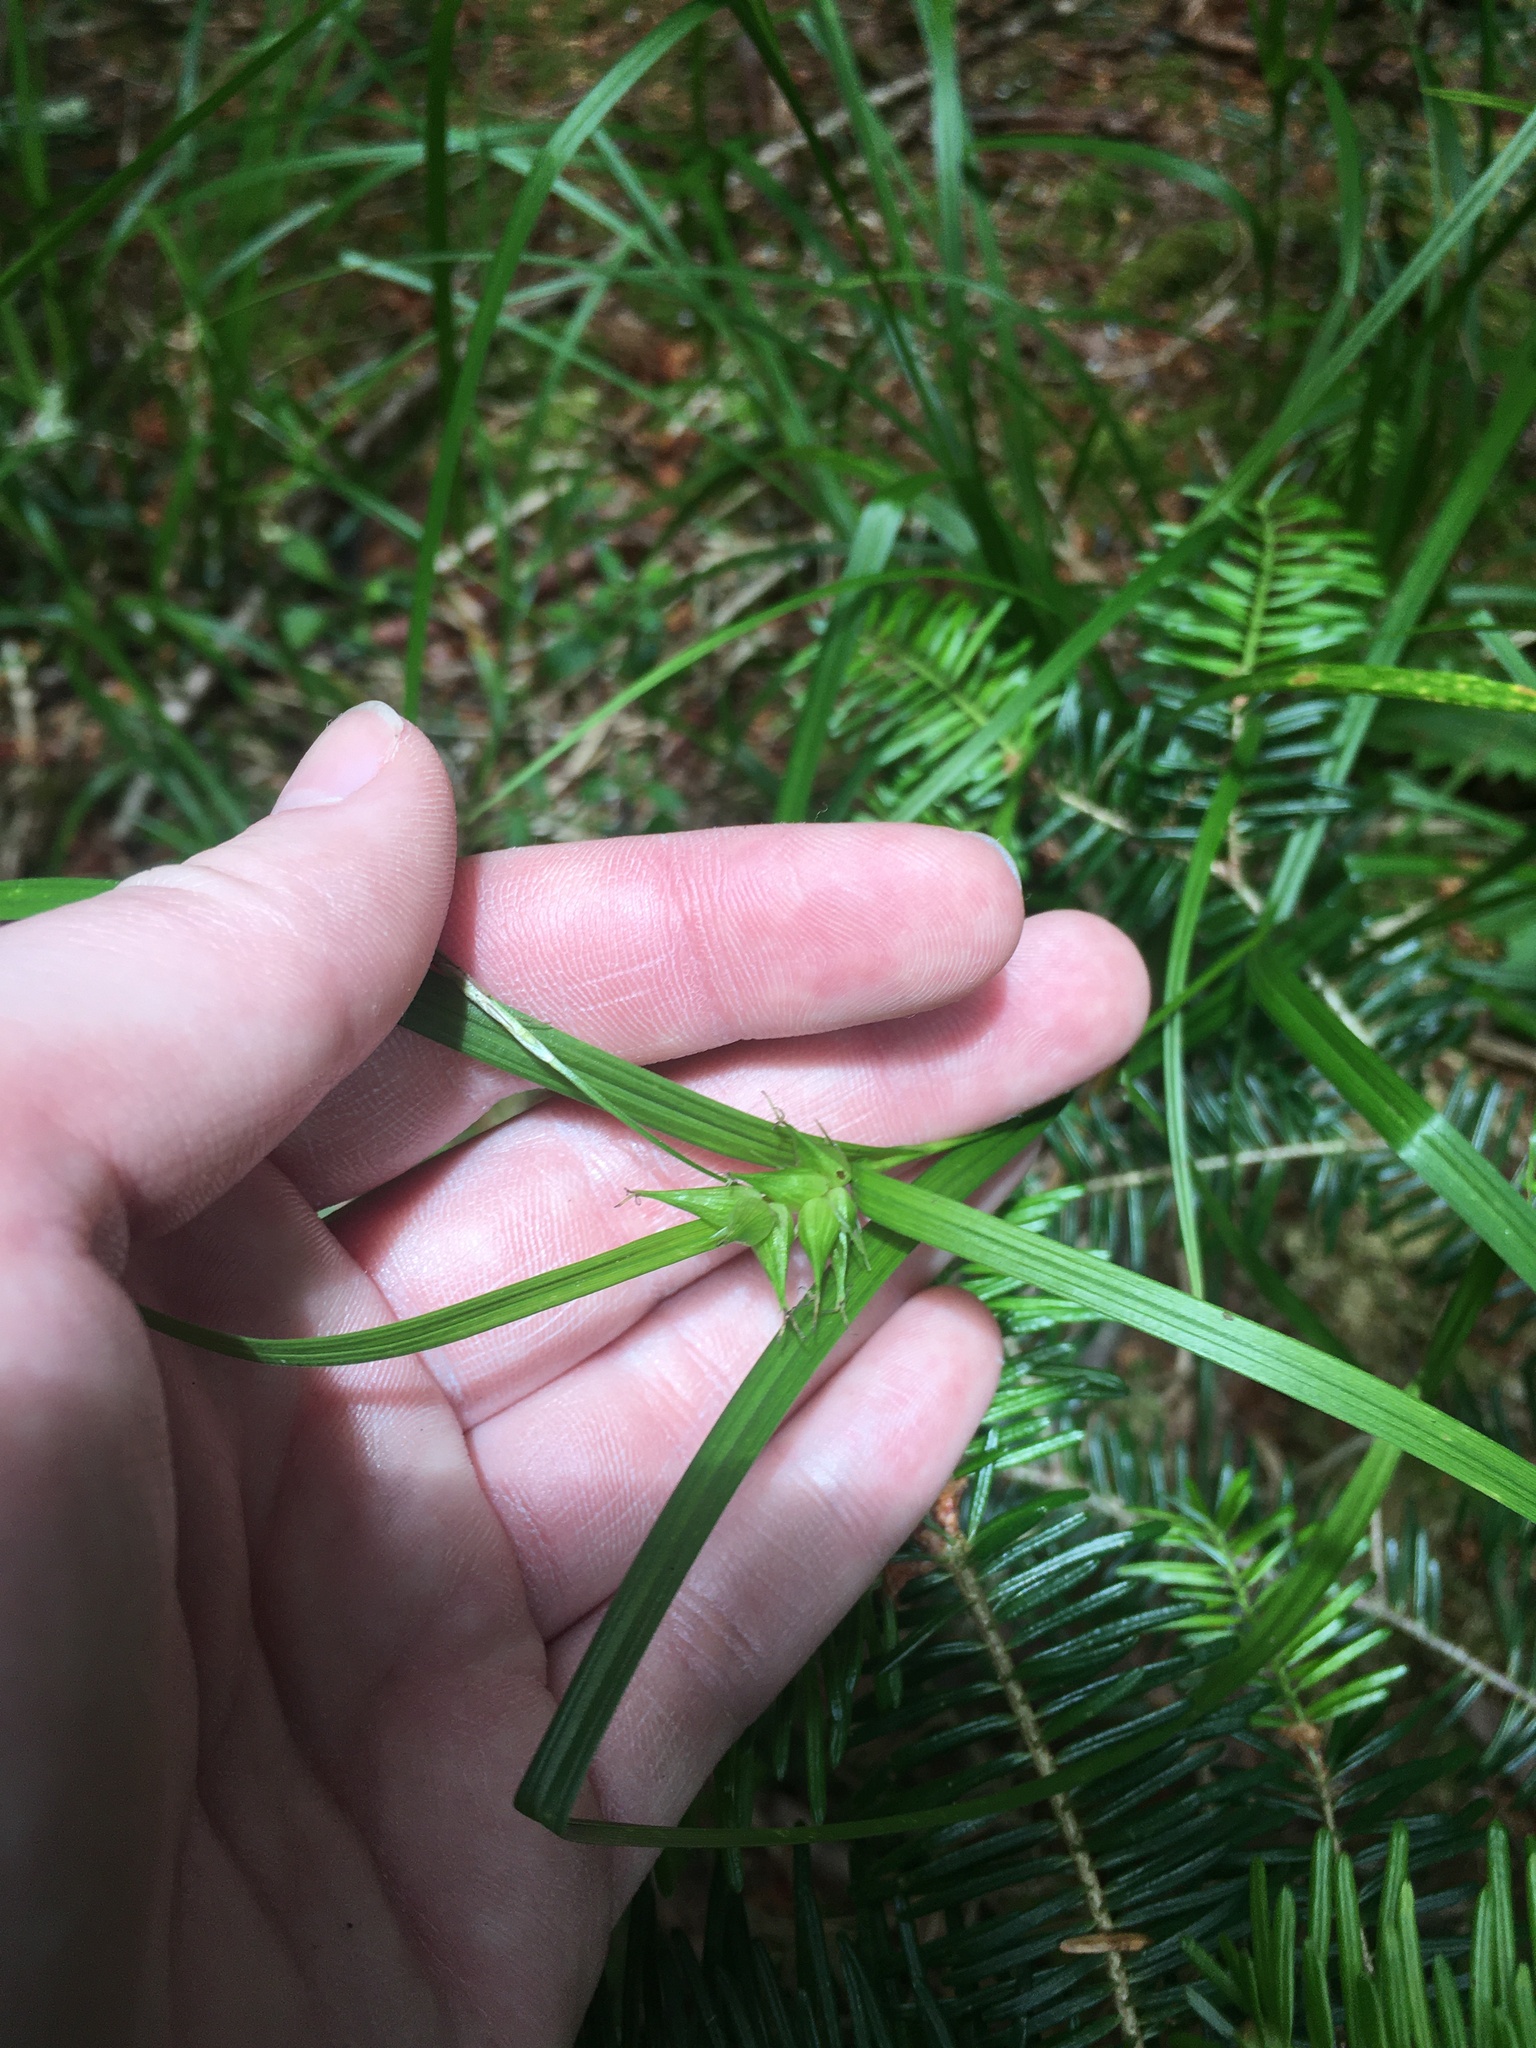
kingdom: Plantae
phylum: Tracheophyta
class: Liliopsida
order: Poales
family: Cyperaceae
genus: Carex
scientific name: Carex intumescens
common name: Greater bladder sedge
